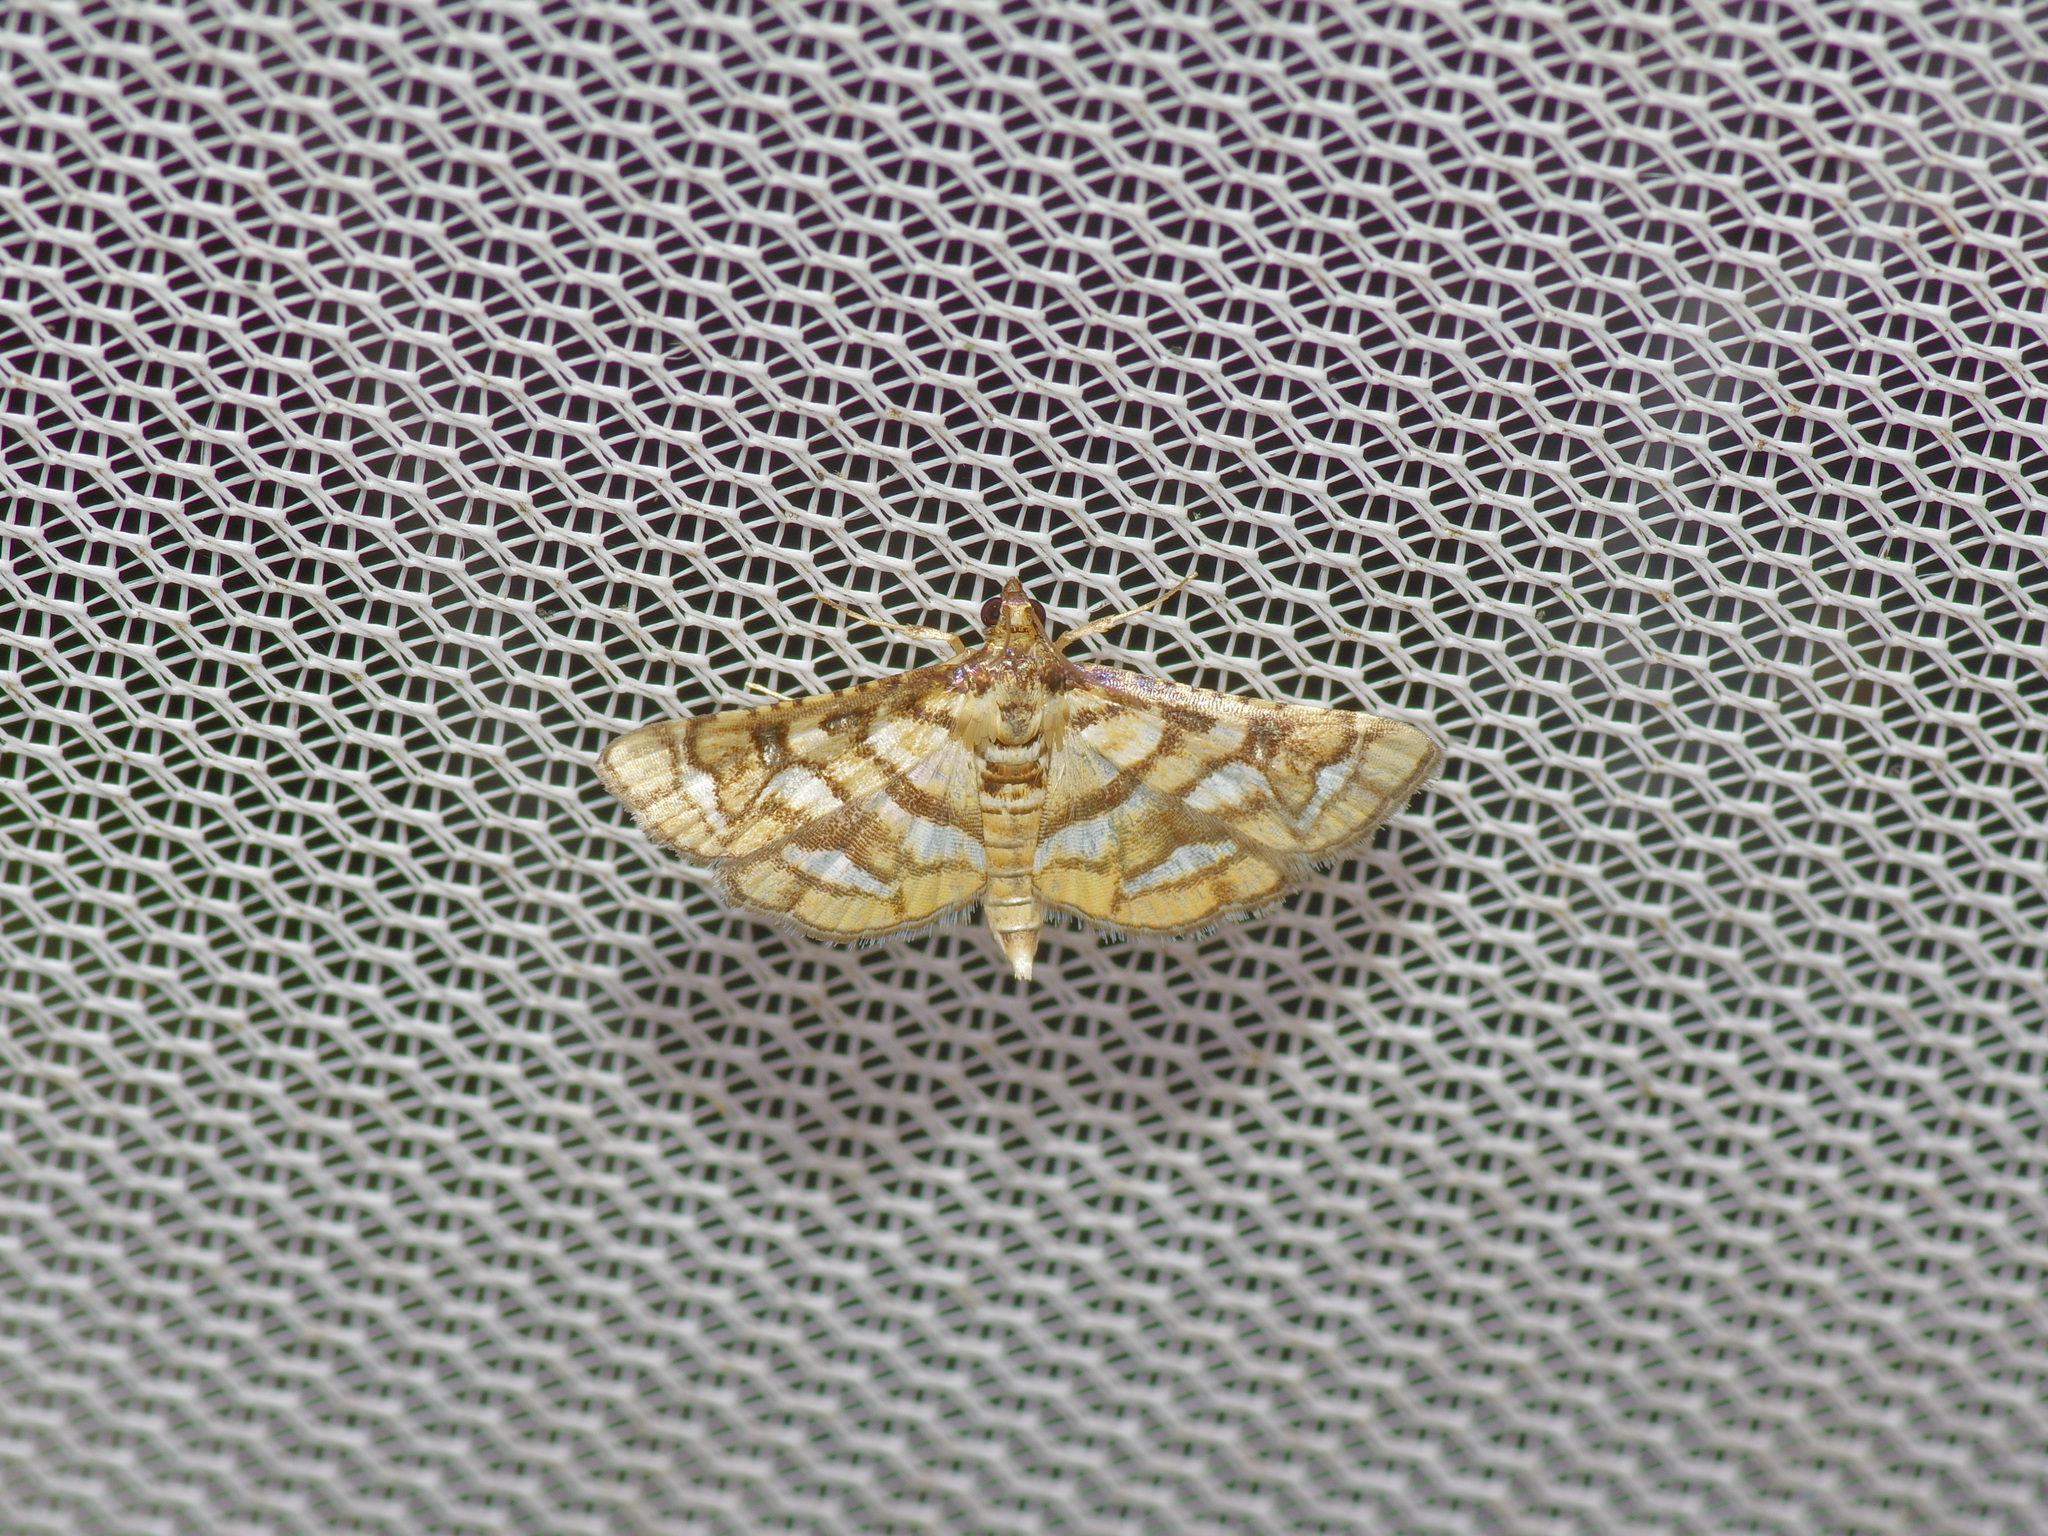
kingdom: Animalia
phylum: Arthropoda
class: Insecta
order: Lepidoptera
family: Crambidae
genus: Hileithia
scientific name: Hileithia magualis
